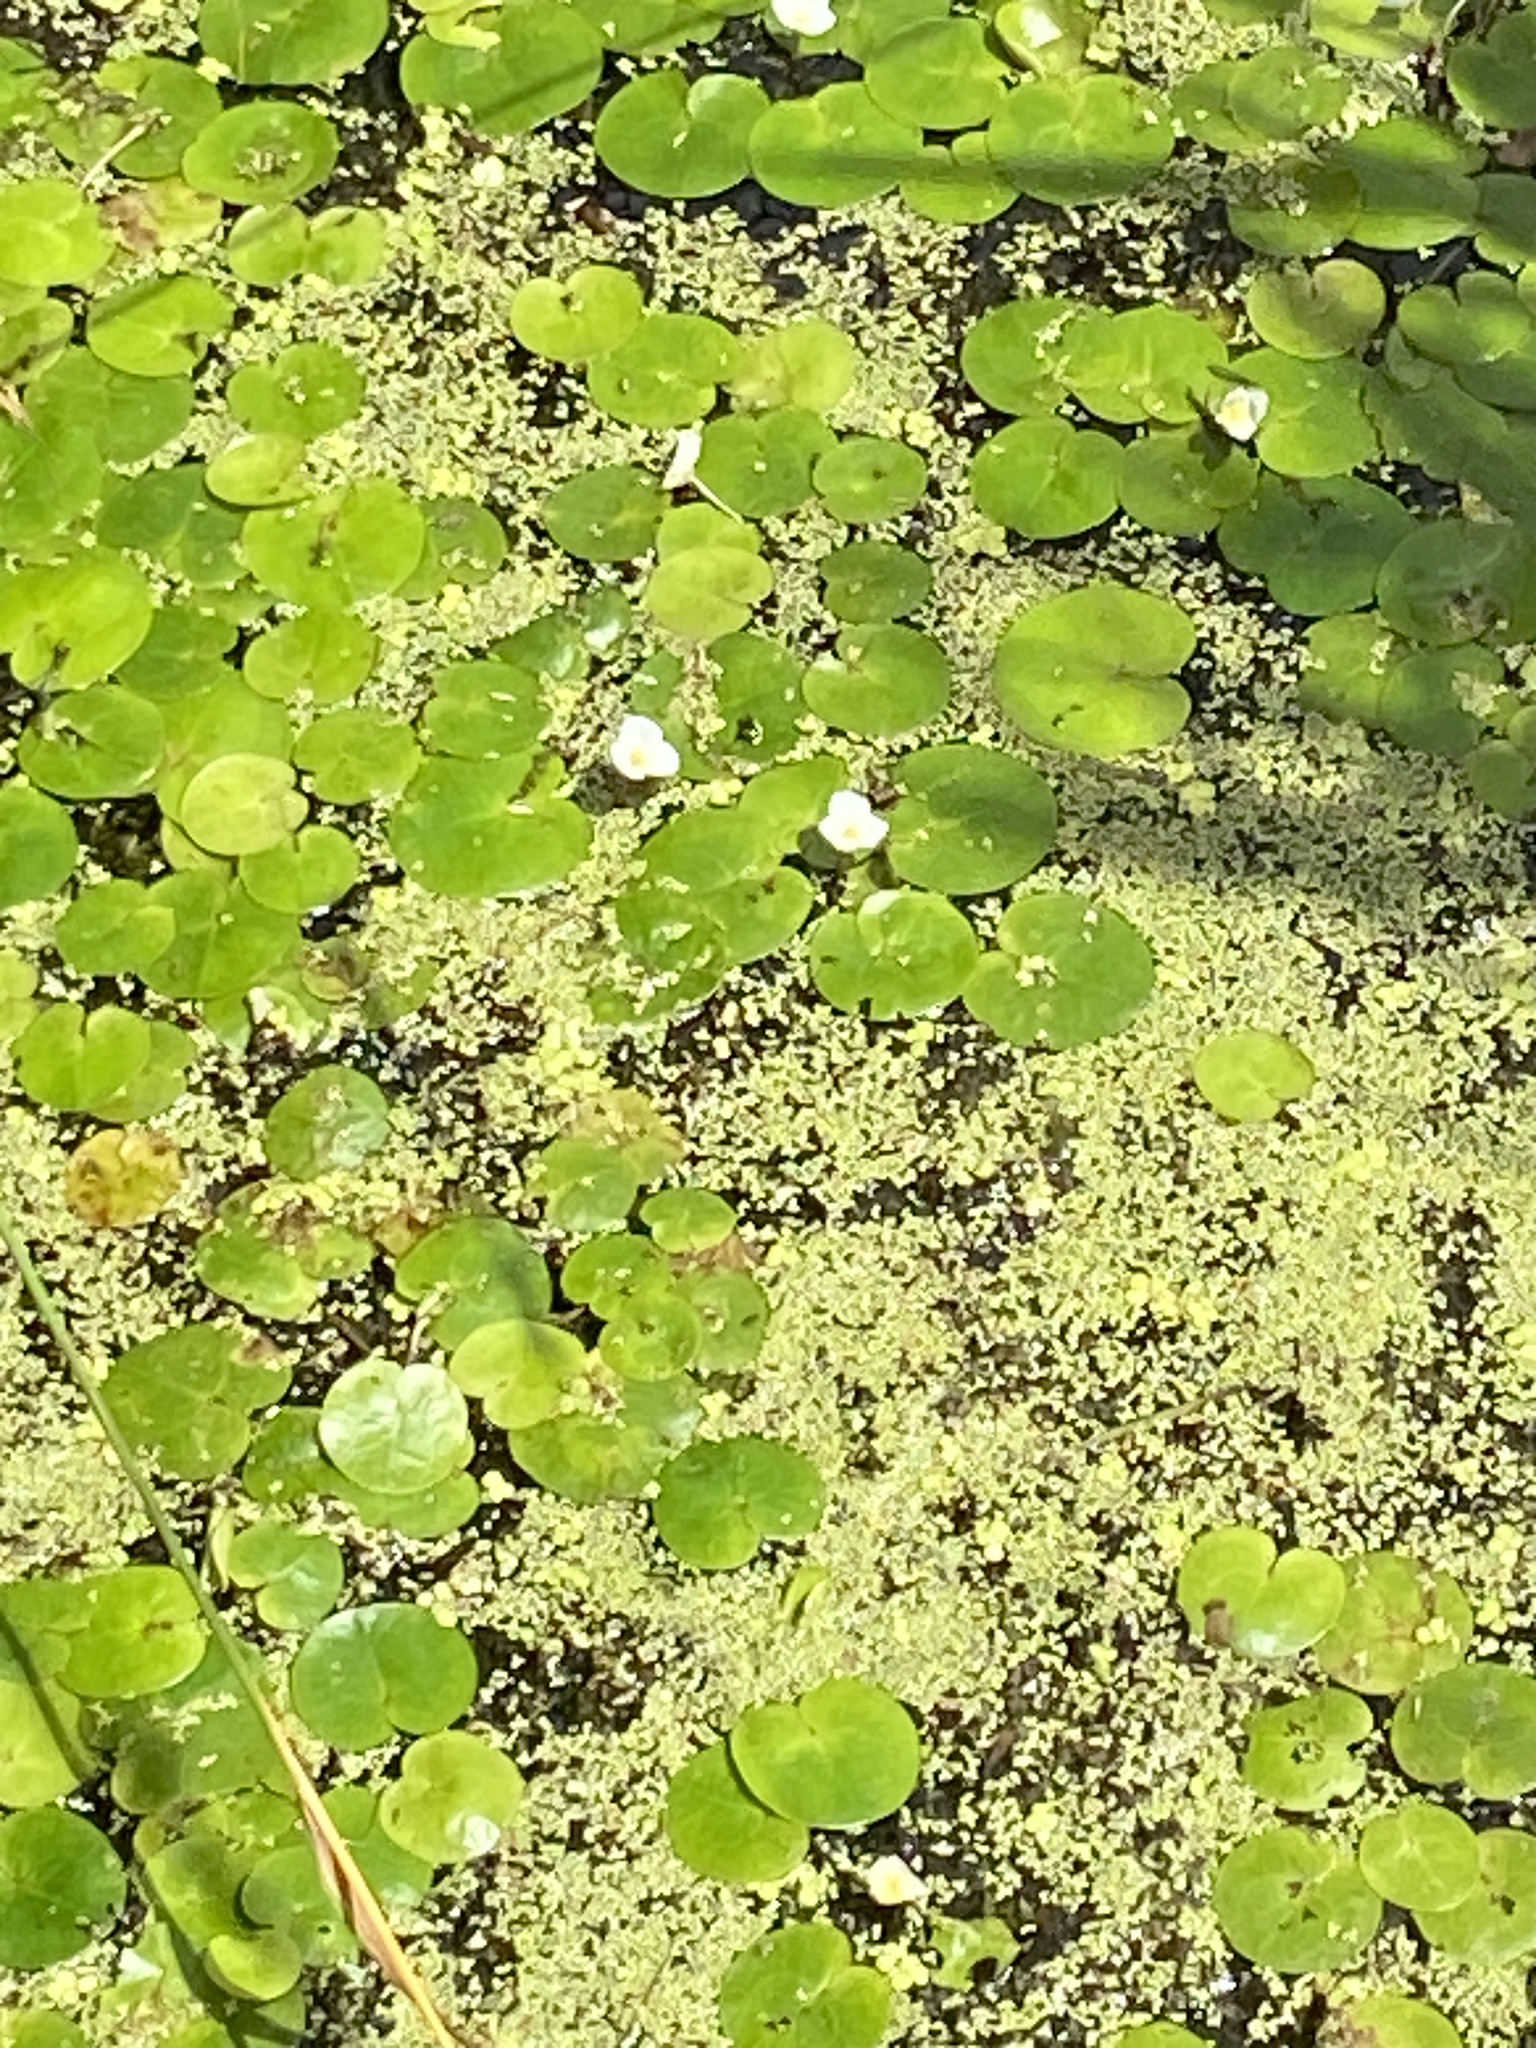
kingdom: Plantae
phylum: Tracheophyta
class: Liliopsida
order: Alismatales
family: Hydrocharitaceae
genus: Hydrocharis
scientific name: Hydrocharis morsus-ranae
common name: Frogbit
